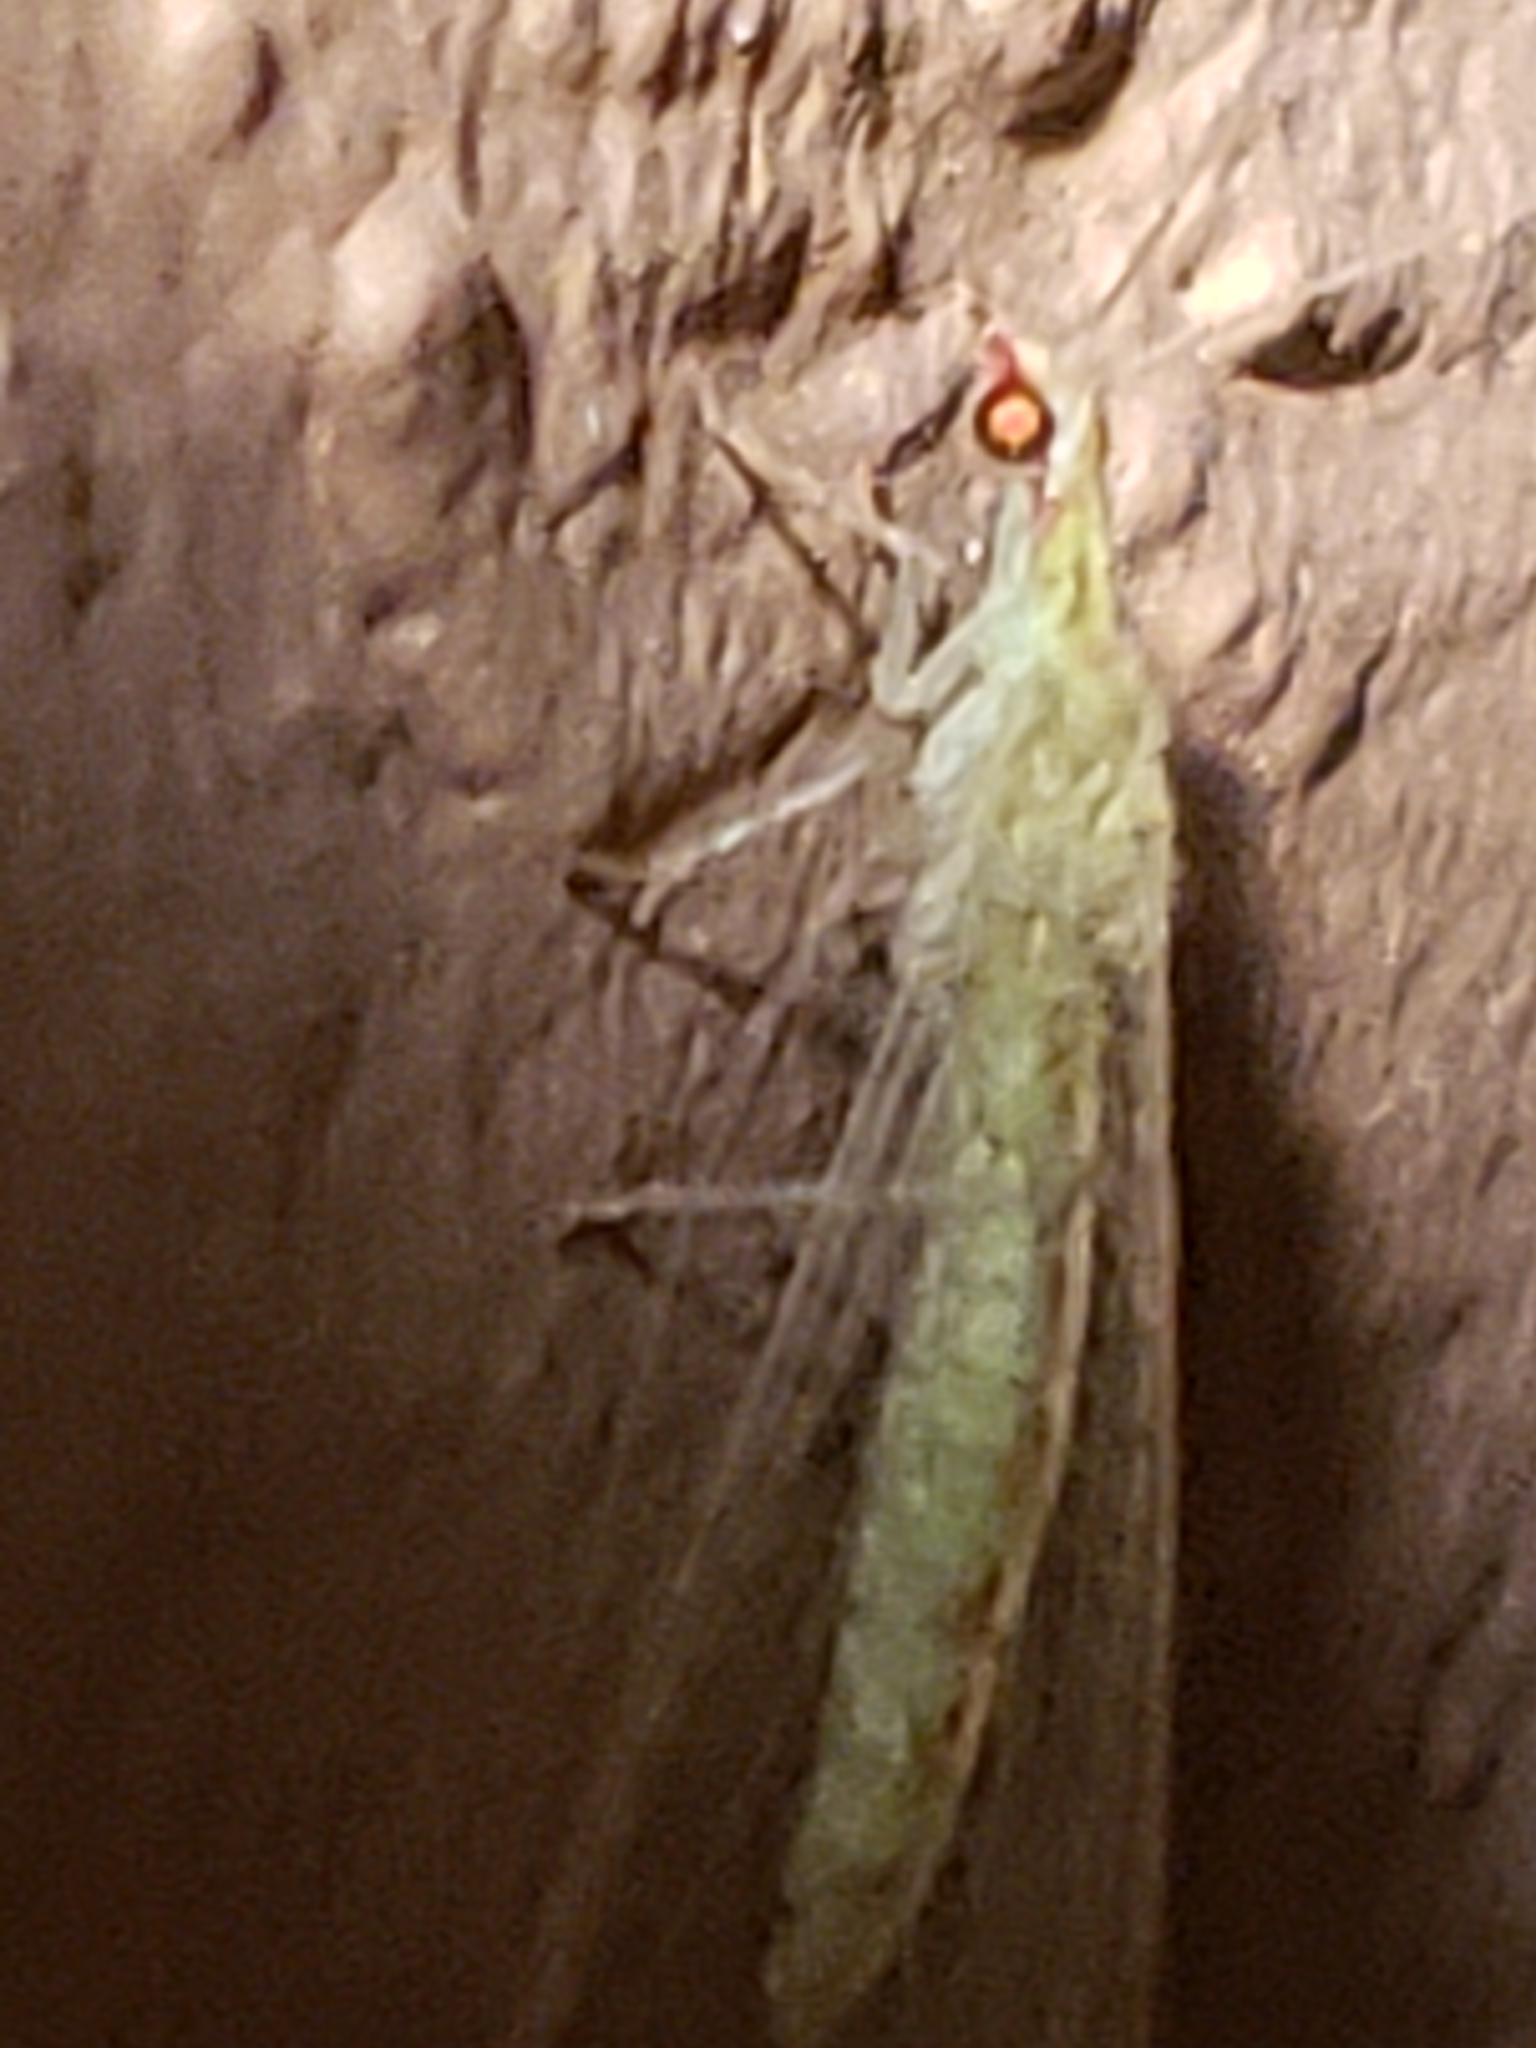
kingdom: Animalia
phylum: Arthropoda
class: Insecta
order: Neuroptera
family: Chrysopidae
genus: Chrysoperla
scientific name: Chrysoperla
